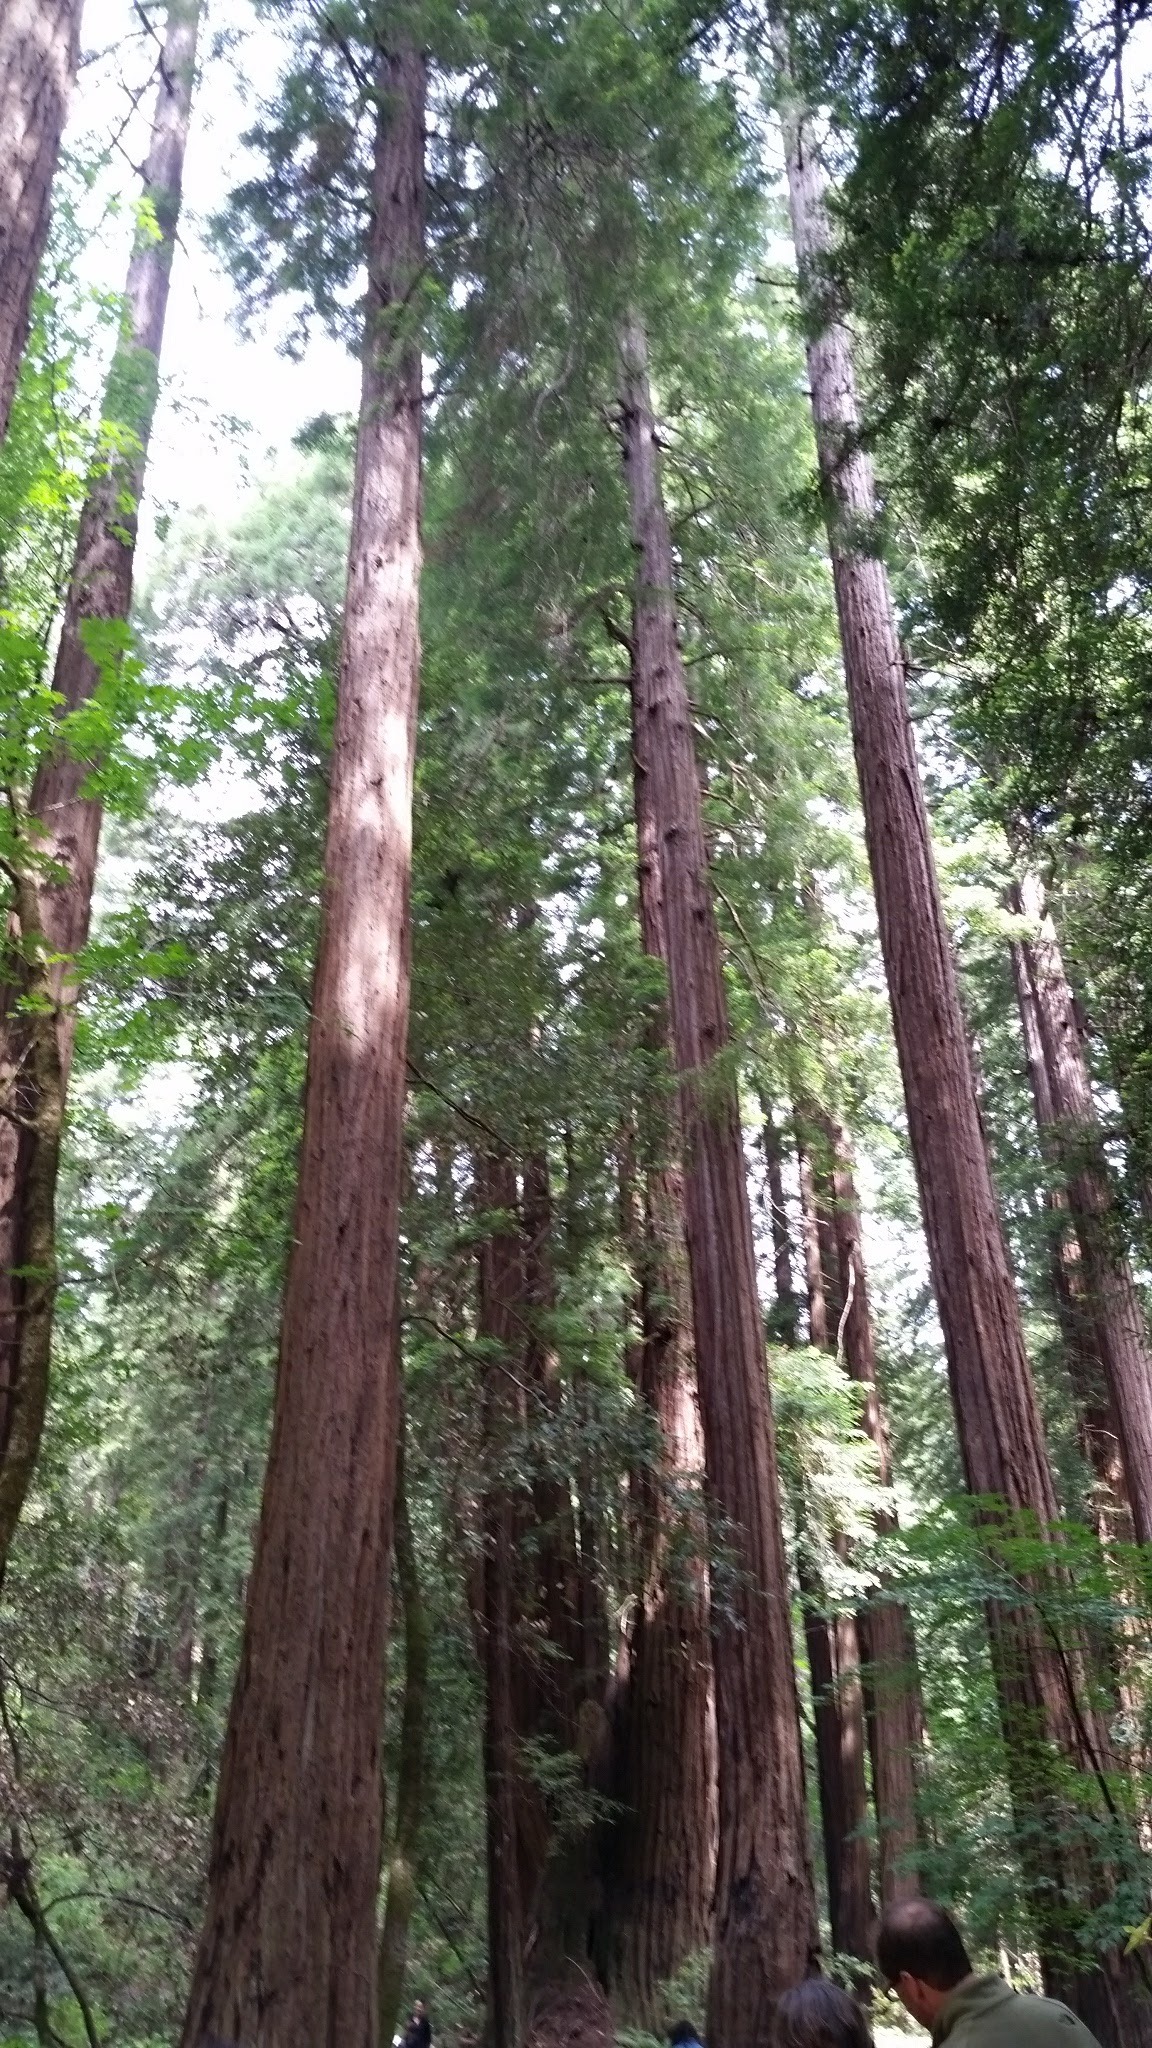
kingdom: Plantae
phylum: Tracheophyta
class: Pinopsida
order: Pinales
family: Cupressaceae
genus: Sequoia
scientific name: Sequoia sempervirens
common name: Coast redwood
